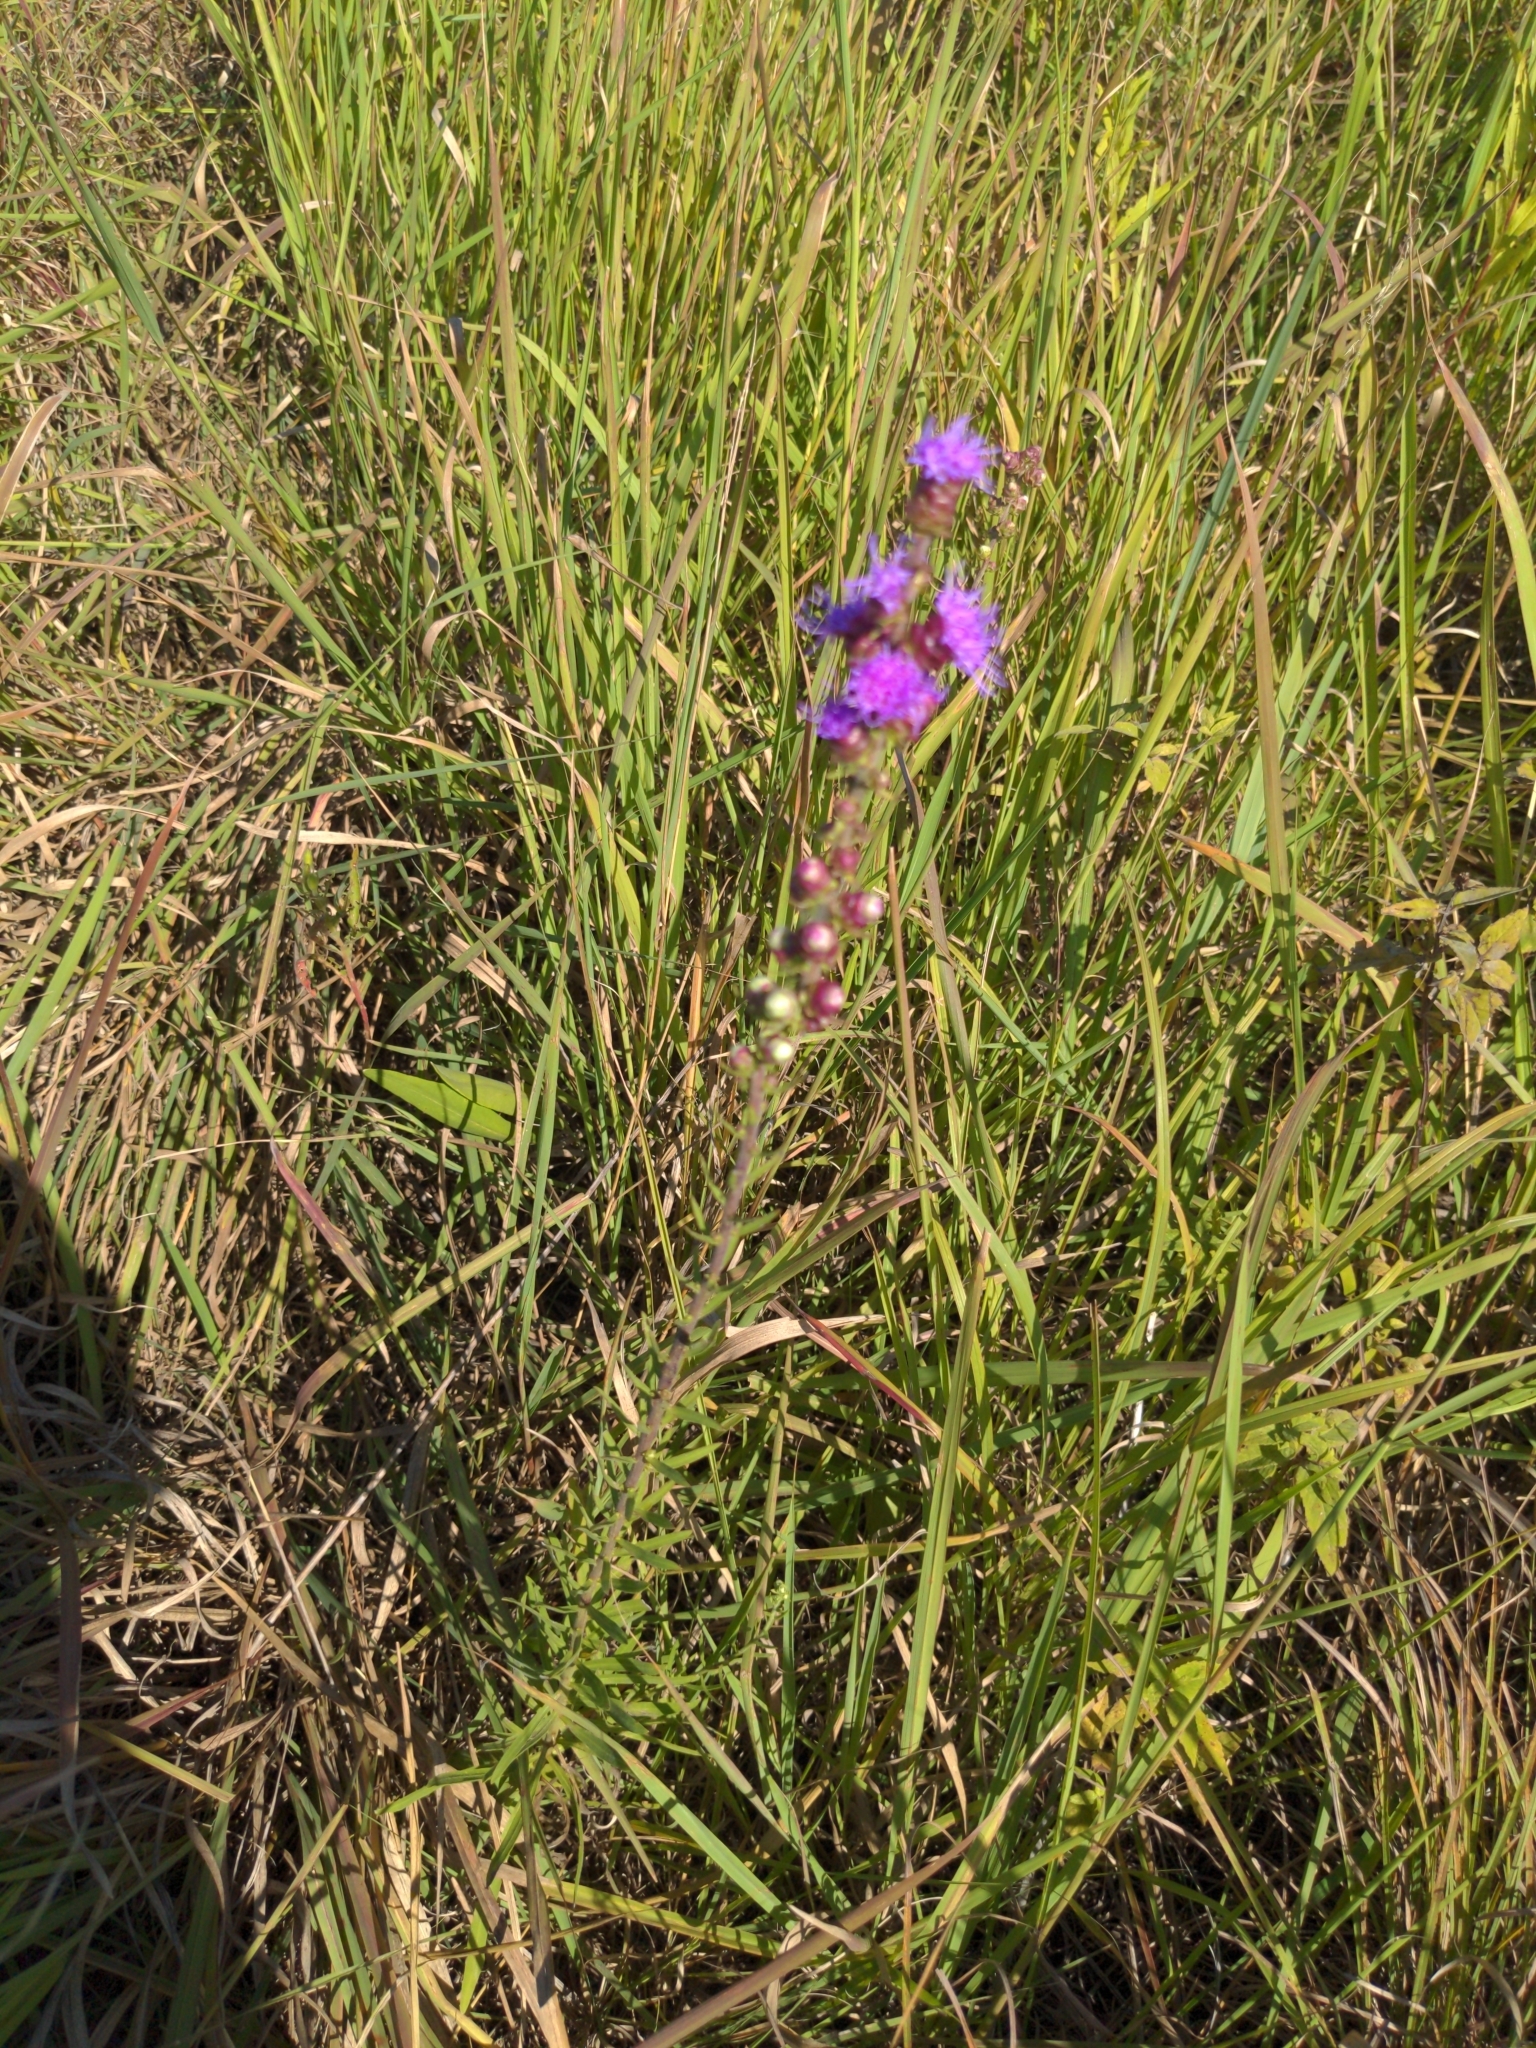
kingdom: Plantae
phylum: Tracheophyta
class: Magnoliopsida
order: Asterales
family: Asteraceae
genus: Liatris
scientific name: Liatris aspera
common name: Lacerate blazing-star
